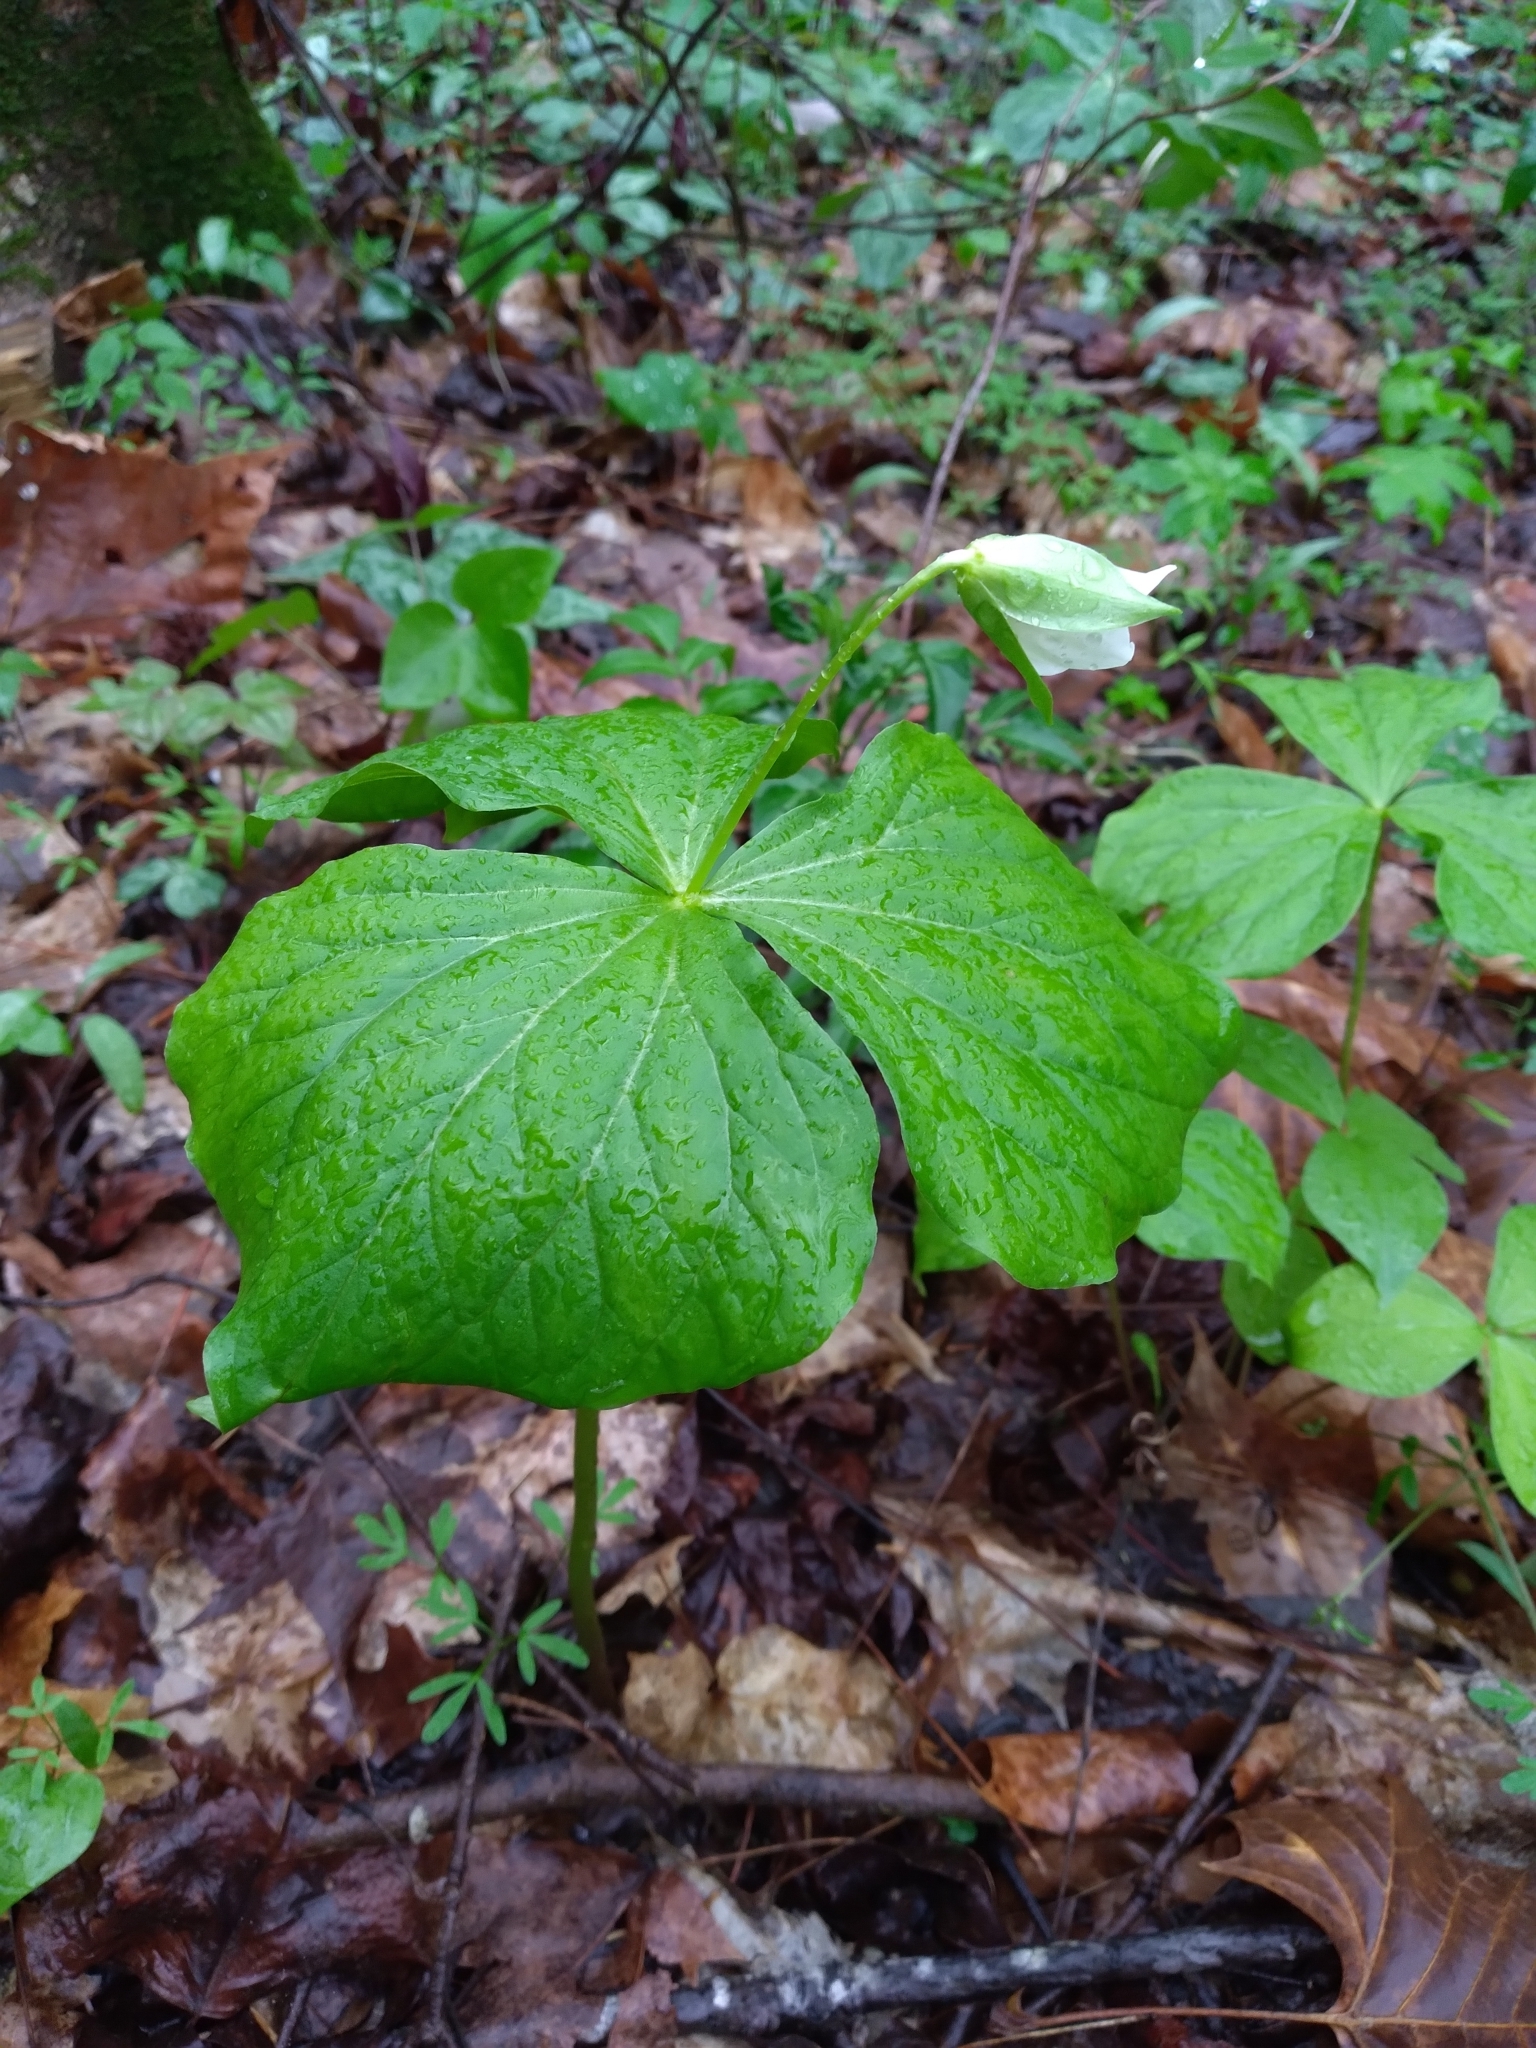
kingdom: Plantae
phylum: Tracheophyta
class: Liliopsida
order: Liliales
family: Melanthiaceae
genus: Trillium
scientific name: Trillium flexipes
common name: Drooping trillium
